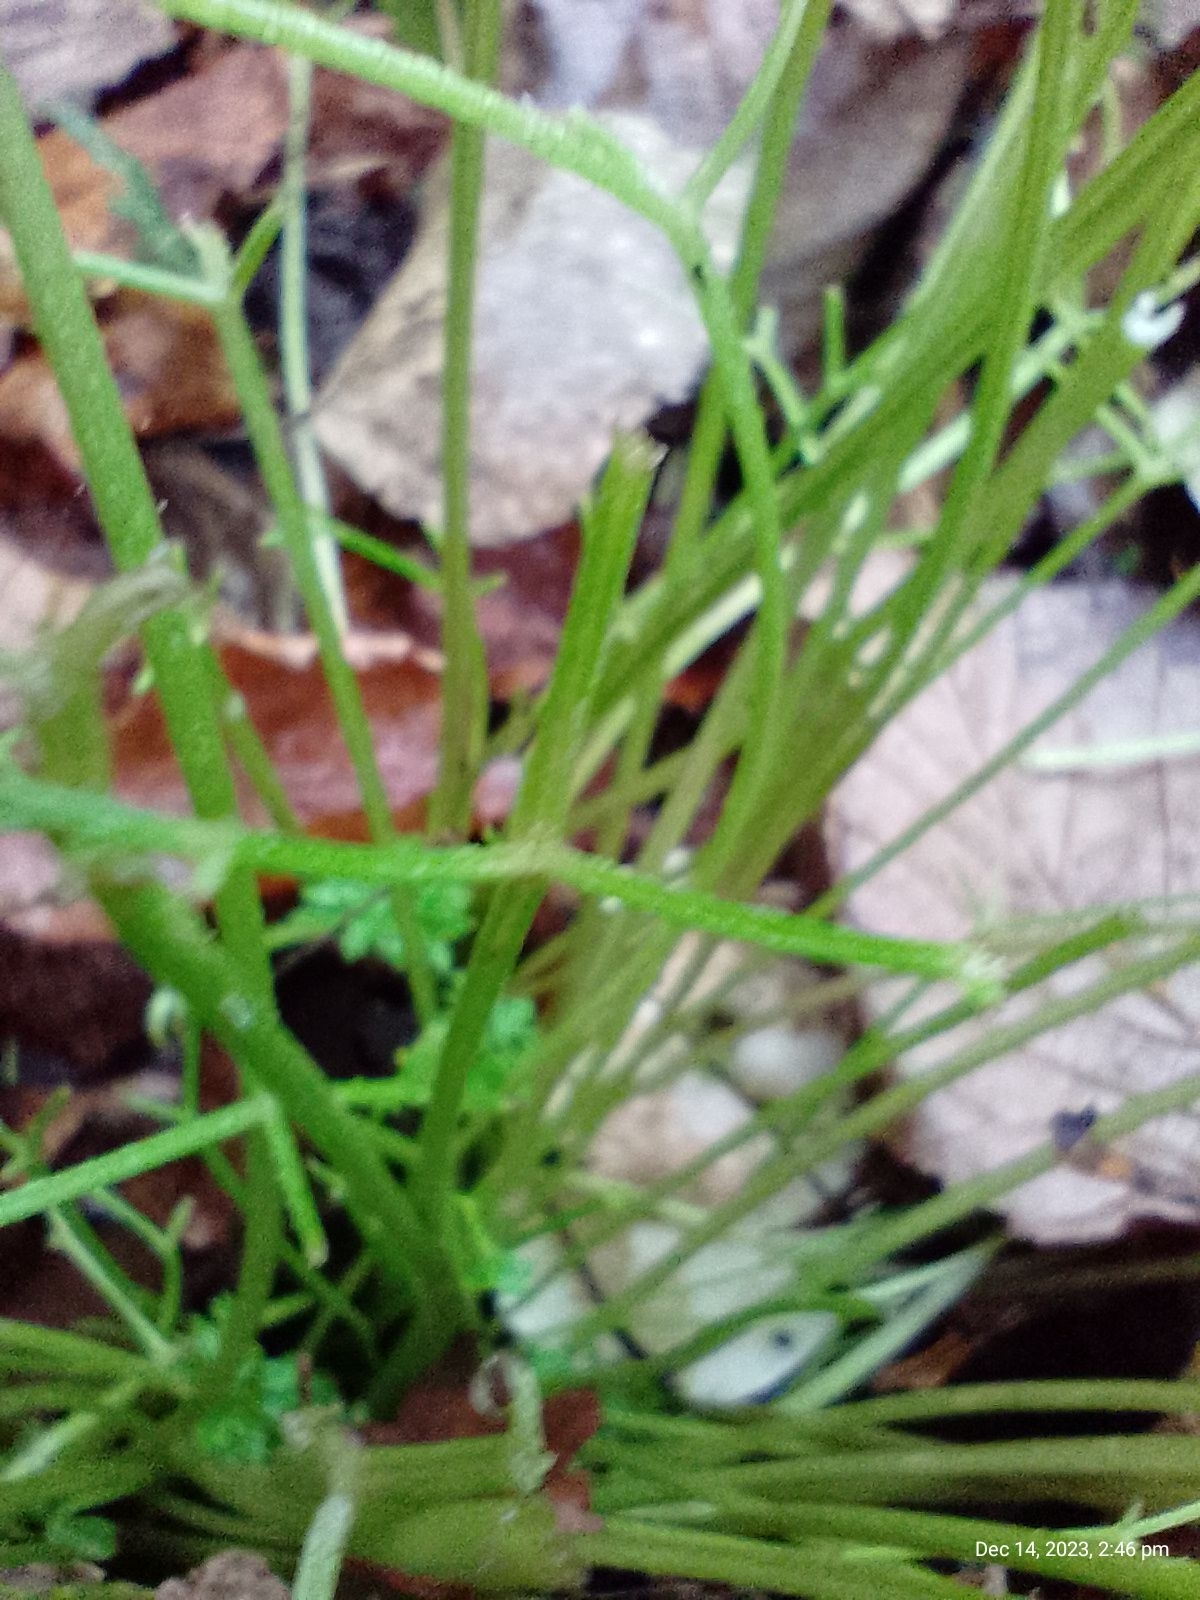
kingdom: Plantae
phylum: Tracheophyta
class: Magnoliopsida
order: Apiales
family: Apiaceae
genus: Chaerophyllum
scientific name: Chaerophyllum temulum
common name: Rough chervil
